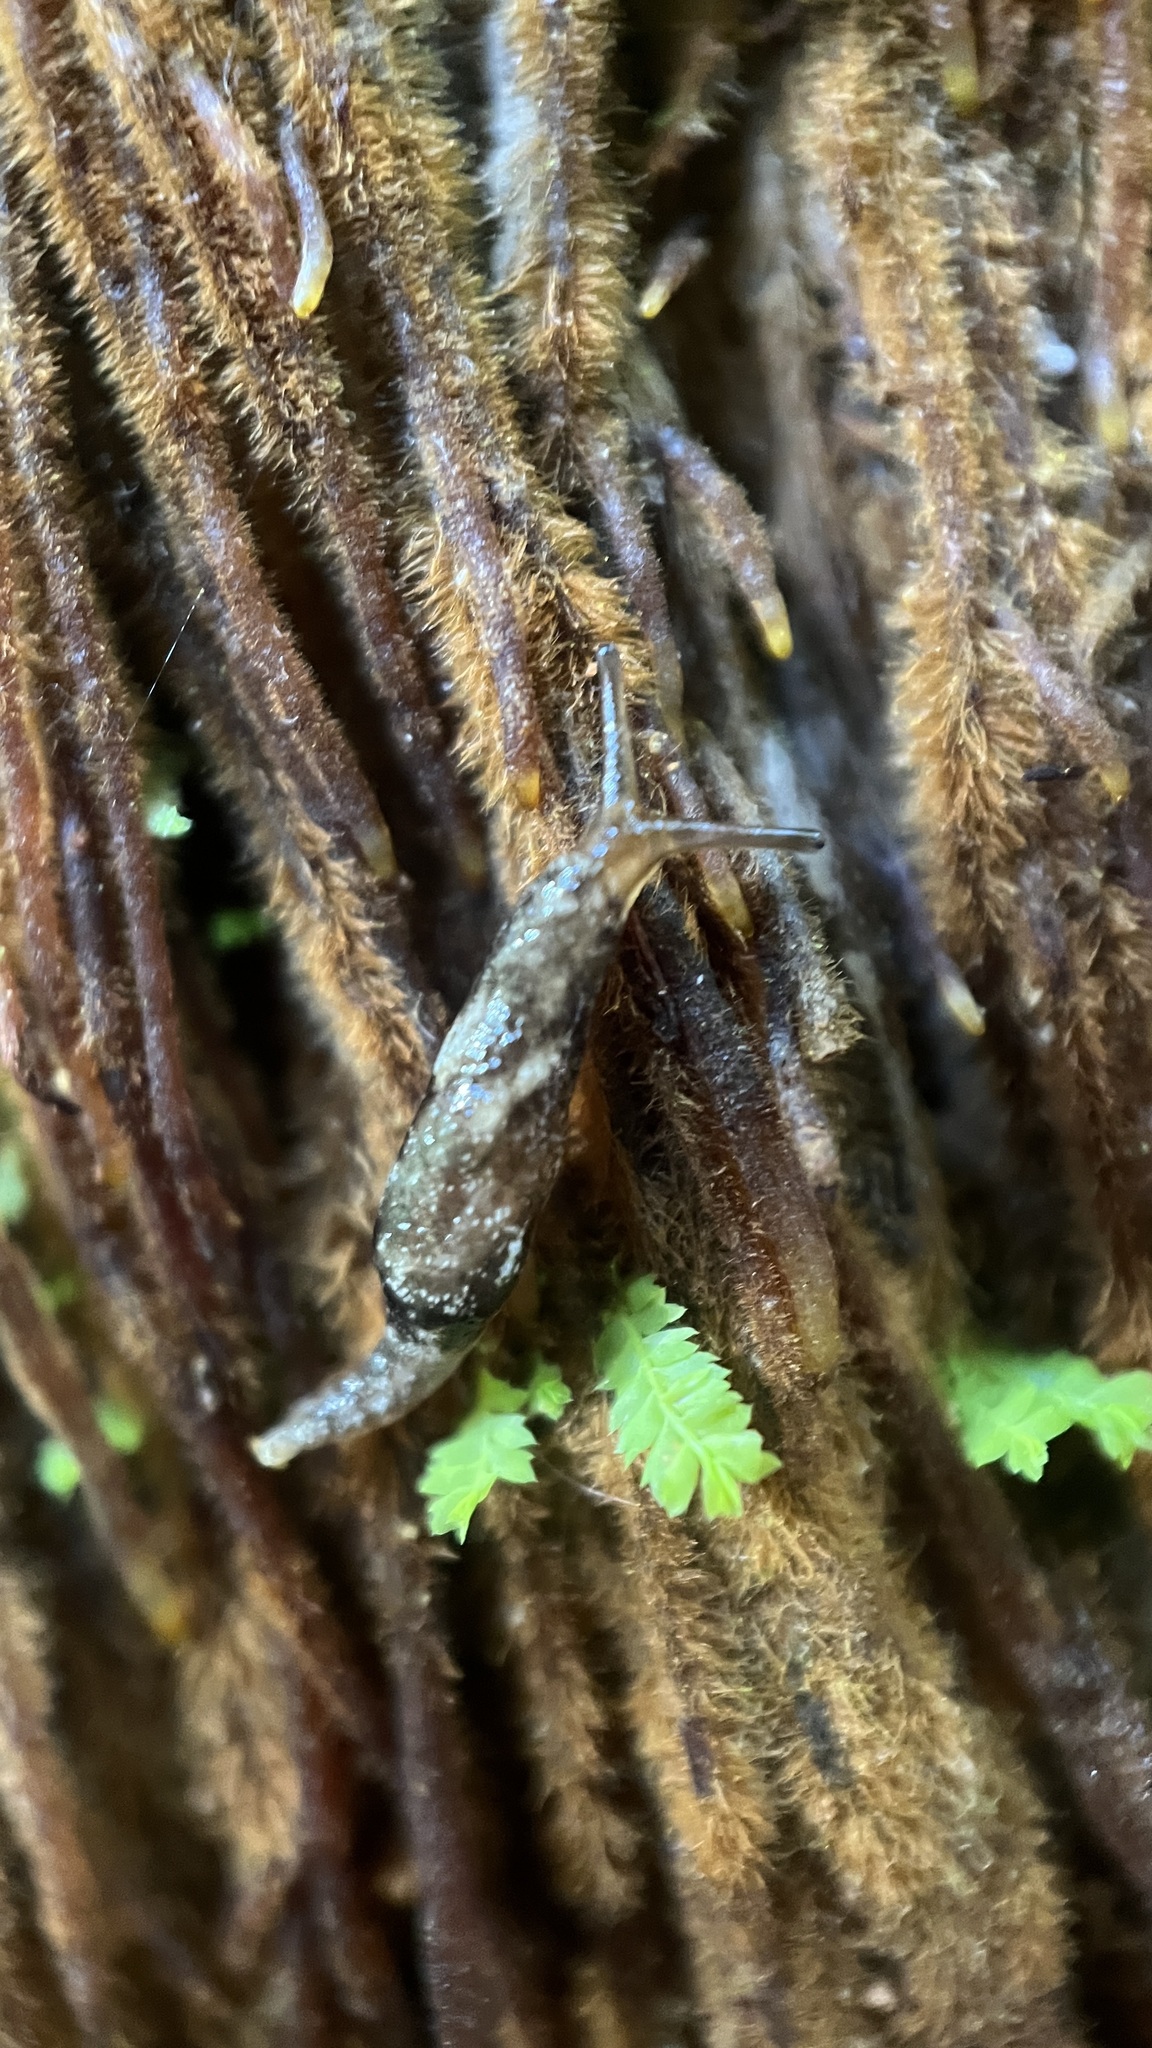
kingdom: Animalia
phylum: Mollusca
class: Gastropoda
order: Stylommatophora
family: Cystopeltidae
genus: Cystopelta
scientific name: Cystopelta
